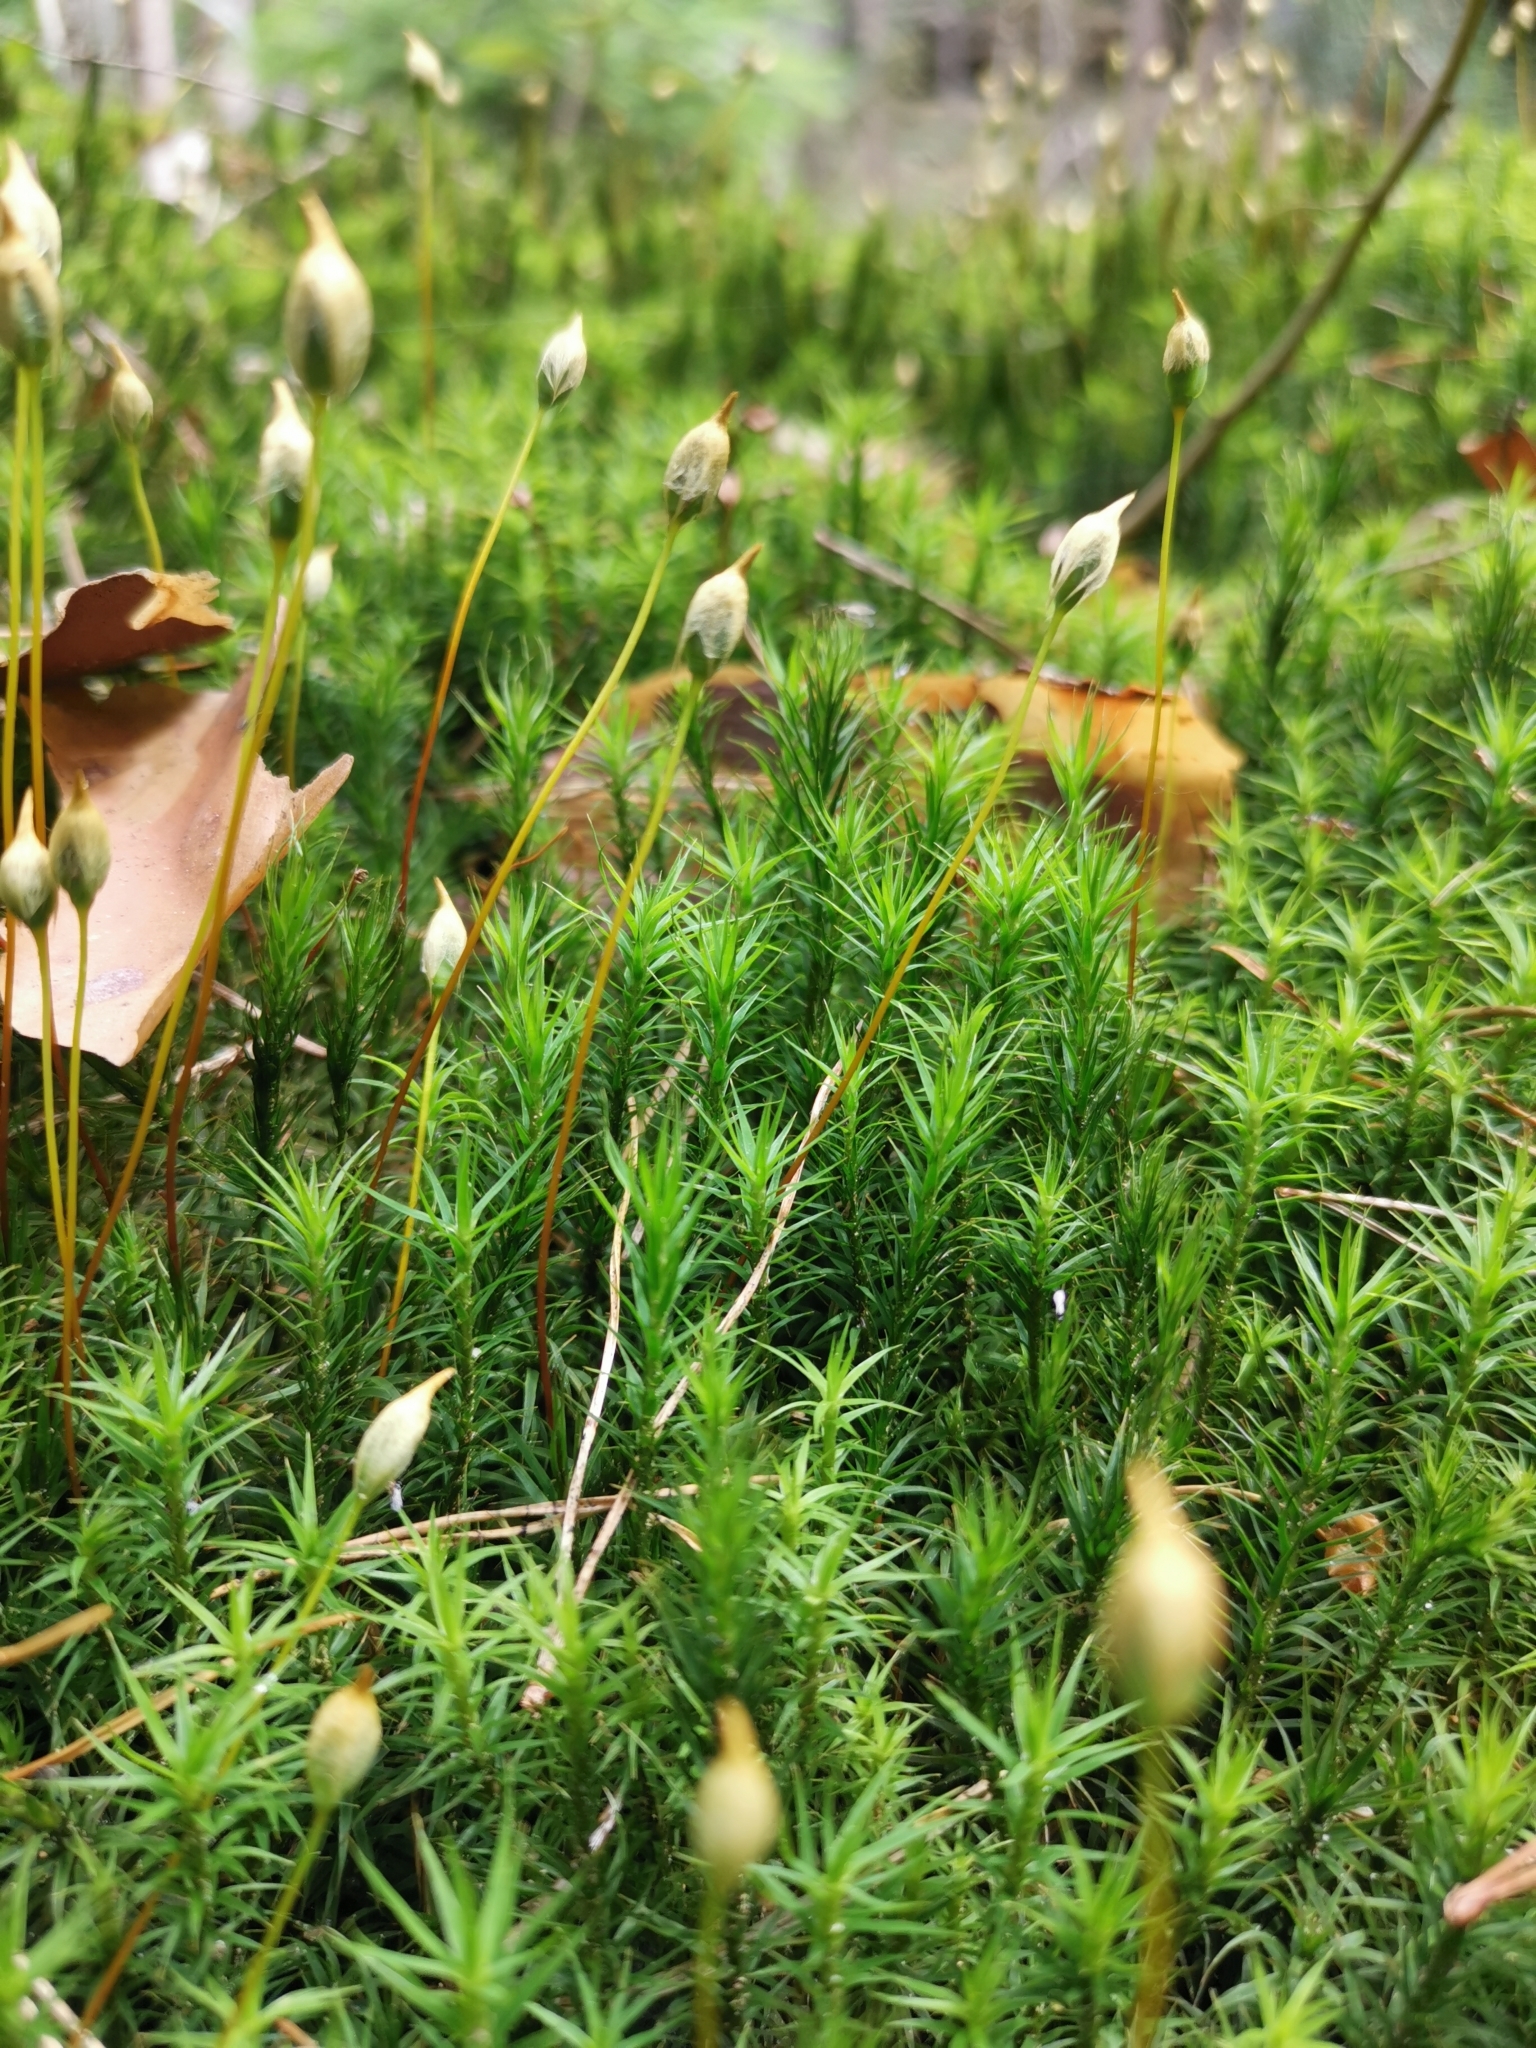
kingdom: Plantae
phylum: Bryophyta
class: Polytrichopsida
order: Polytrichales
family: Polytrichaceae
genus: Polytrichum
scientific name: Polytrichum formosum
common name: Bank haircap moss
